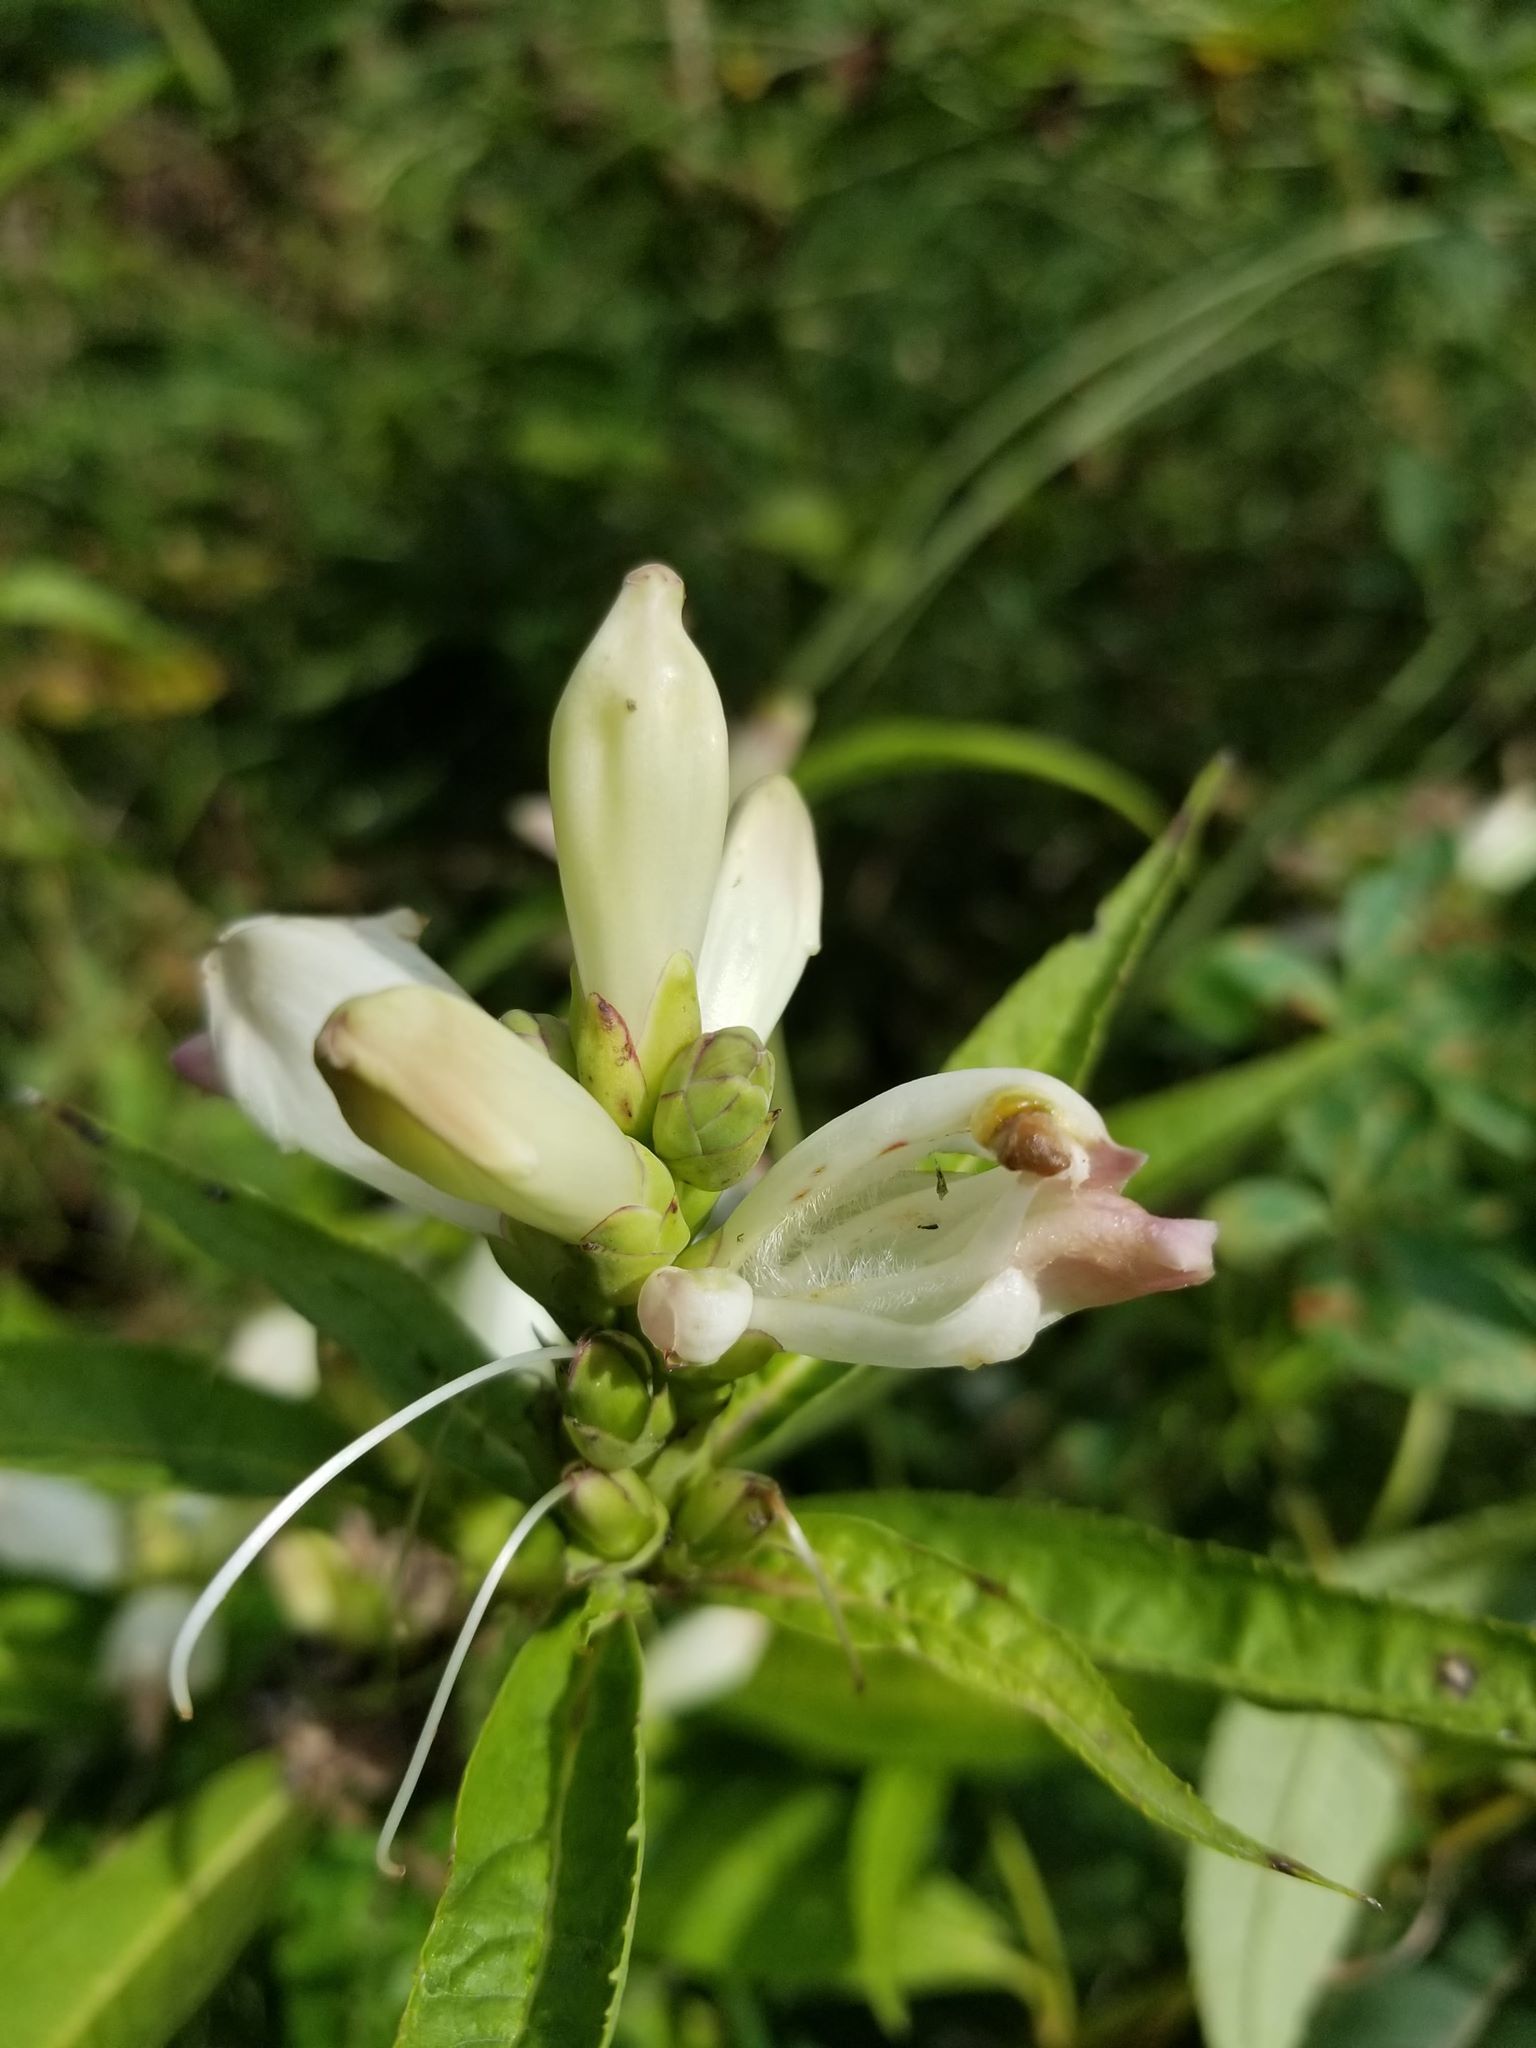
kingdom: Plantae
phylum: Tracheophyta
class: Magnoliopsida
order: Lamiales
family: Plantaginaceae
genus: Chelone
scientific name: Chelone glabra
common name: Snakehead
